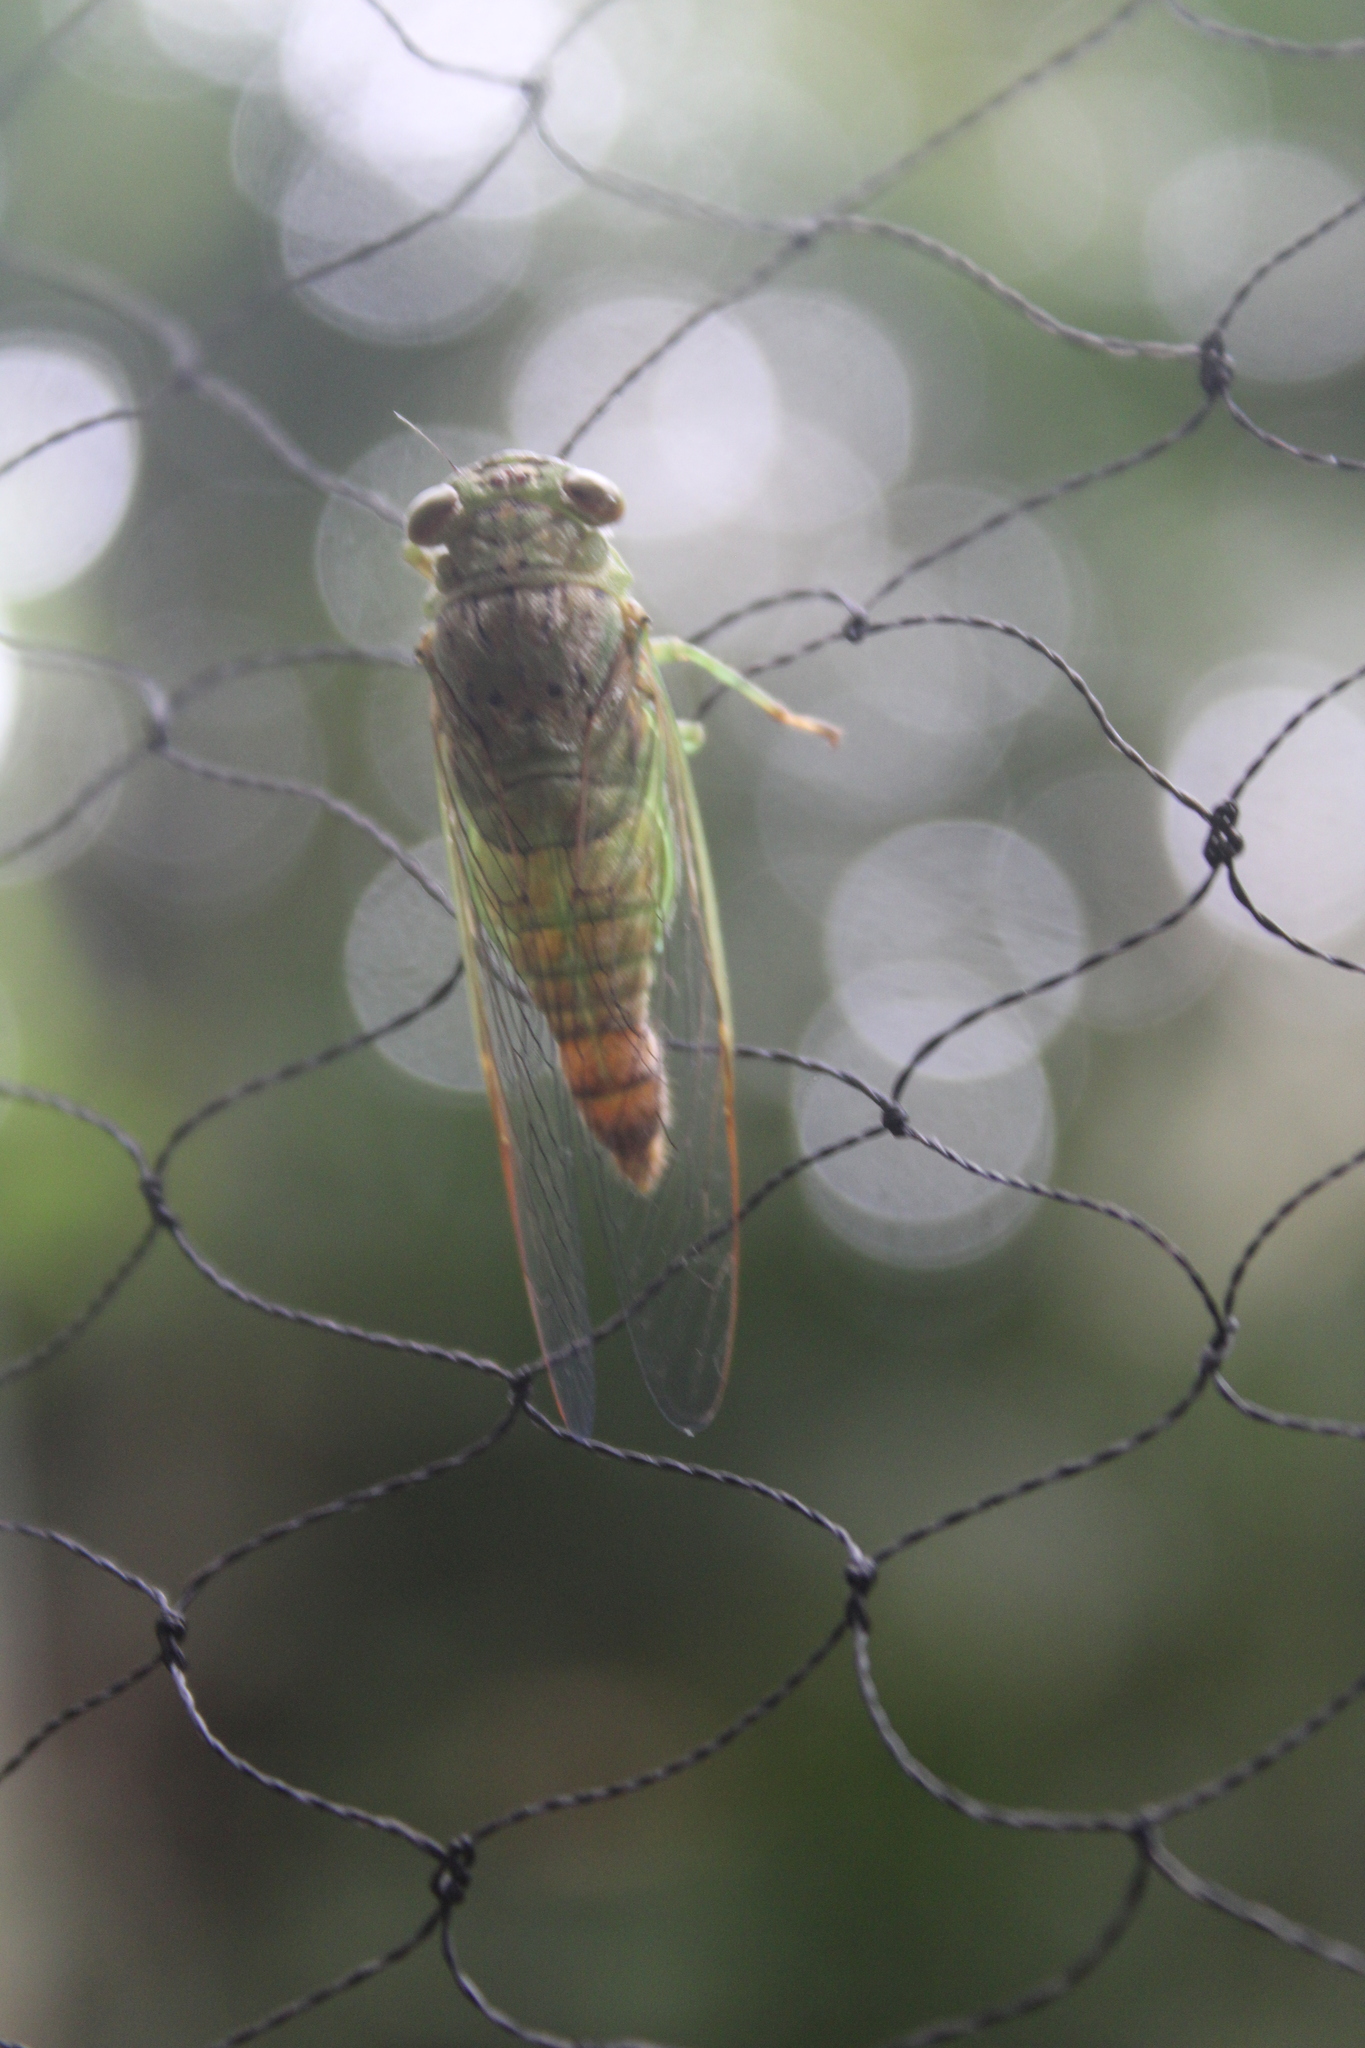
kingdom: Animalia
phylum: Arthropoda
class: Insecta
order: Hemiptera
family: Cicadidae
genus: Aceropyga
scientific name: Aceropyga corynetus
